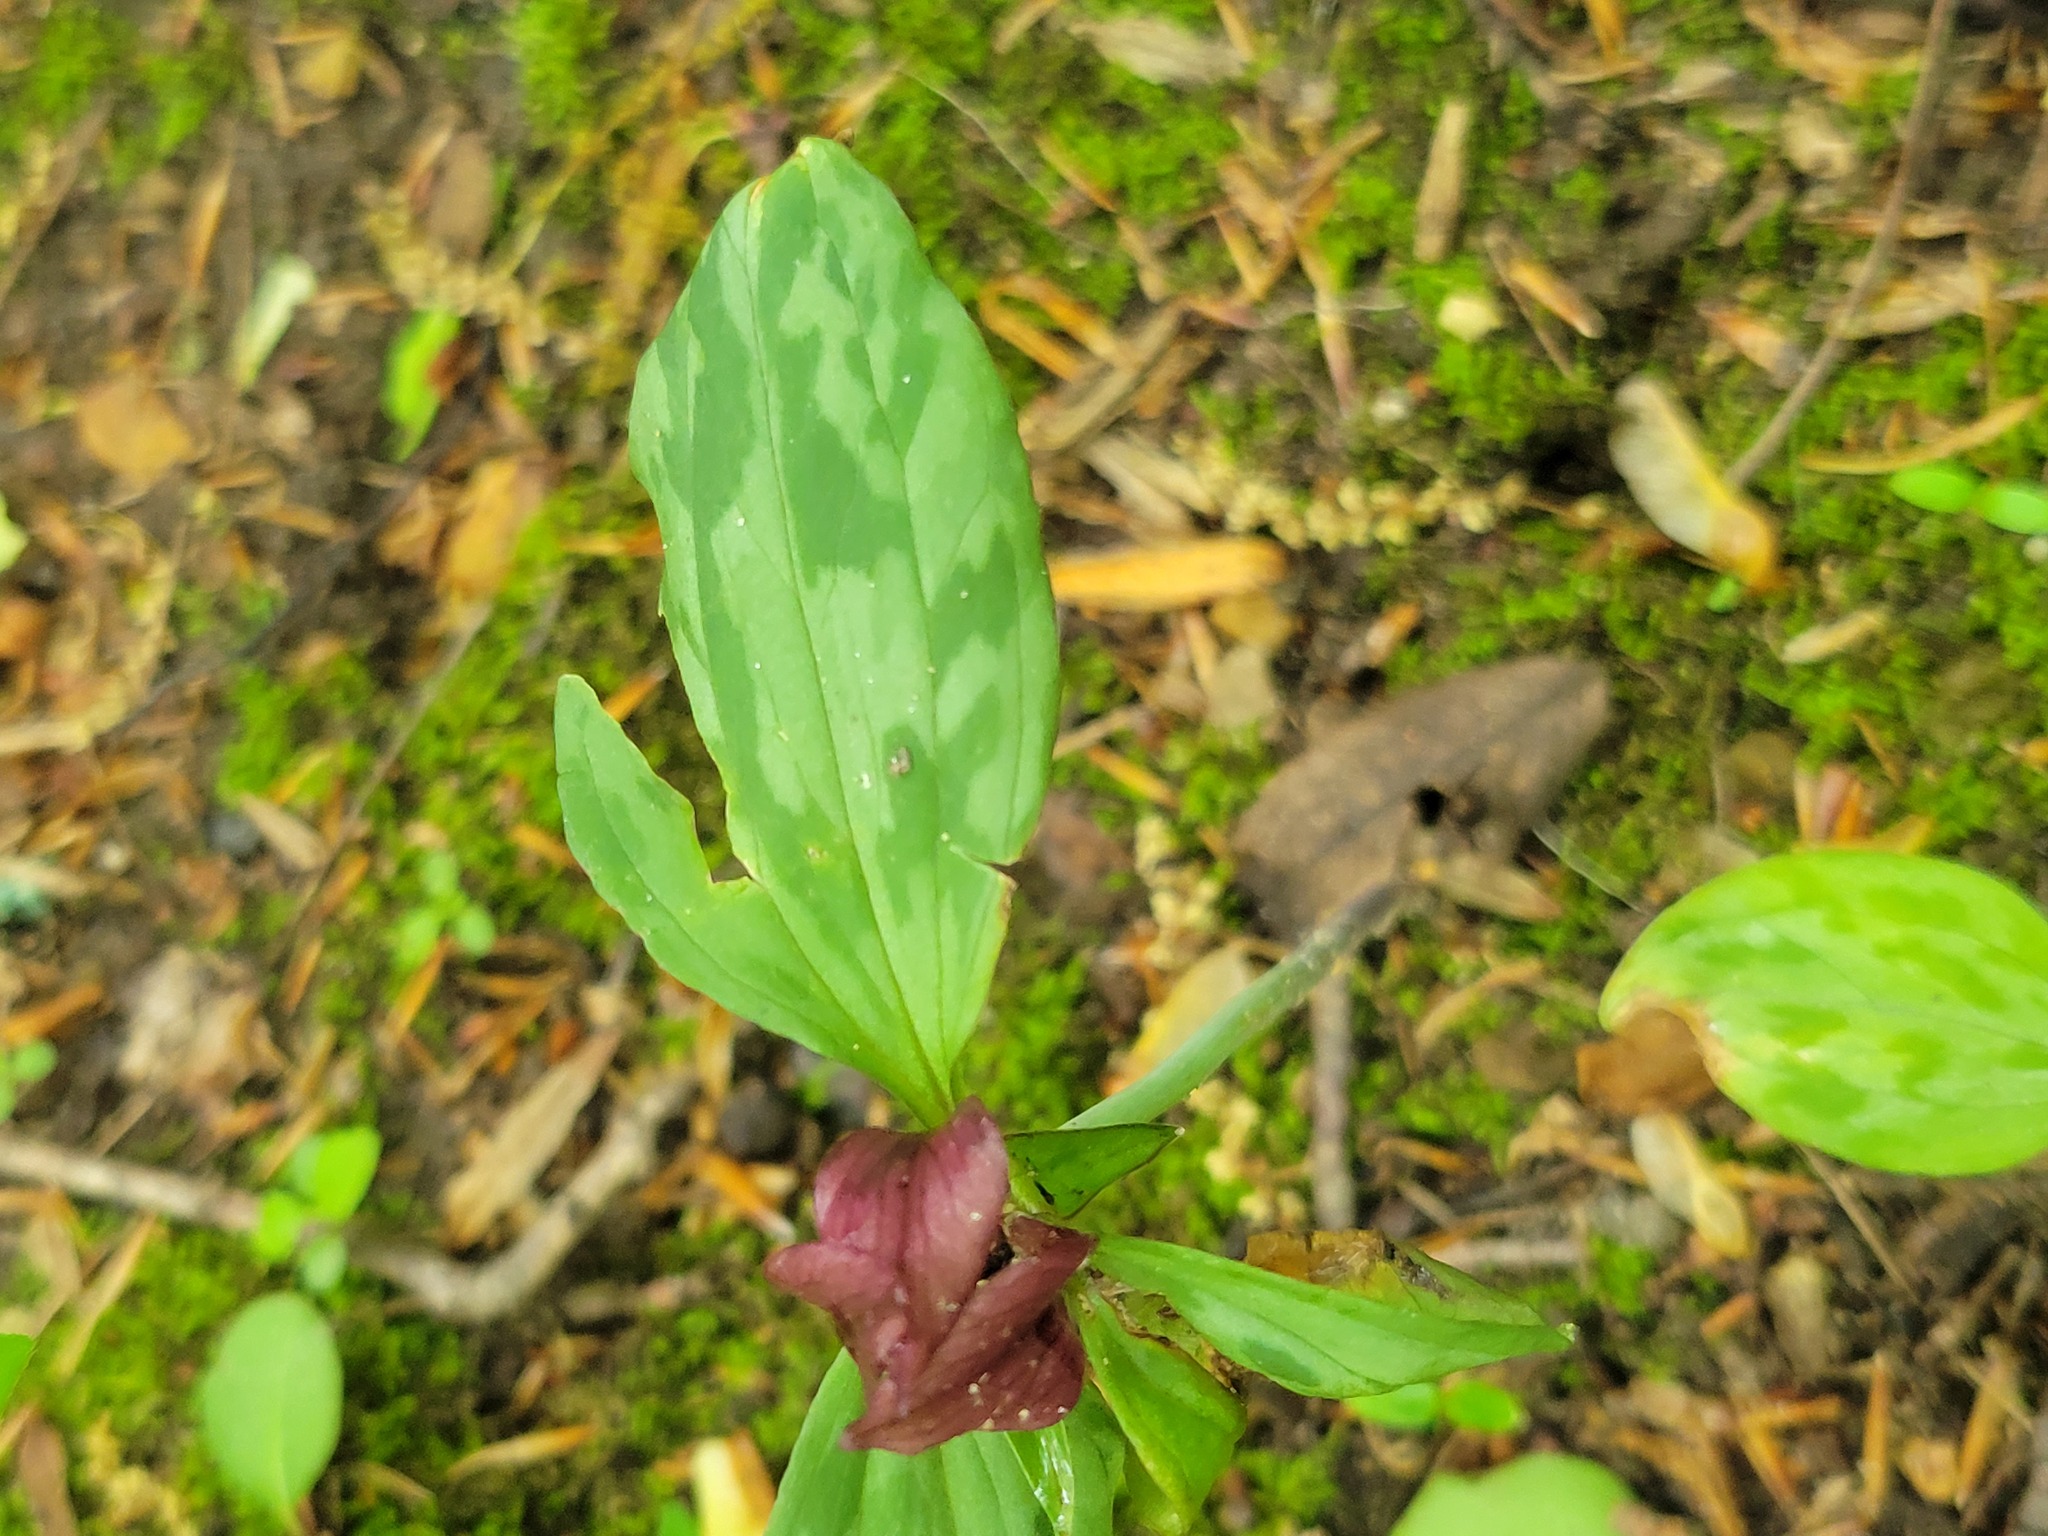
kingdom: Plantae
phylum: Tracheophyta
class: Liliopsida
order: Liliales
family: Melanthiaceae
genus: Trillium
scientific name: Trillium recurvatum
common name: Bloody butcher
